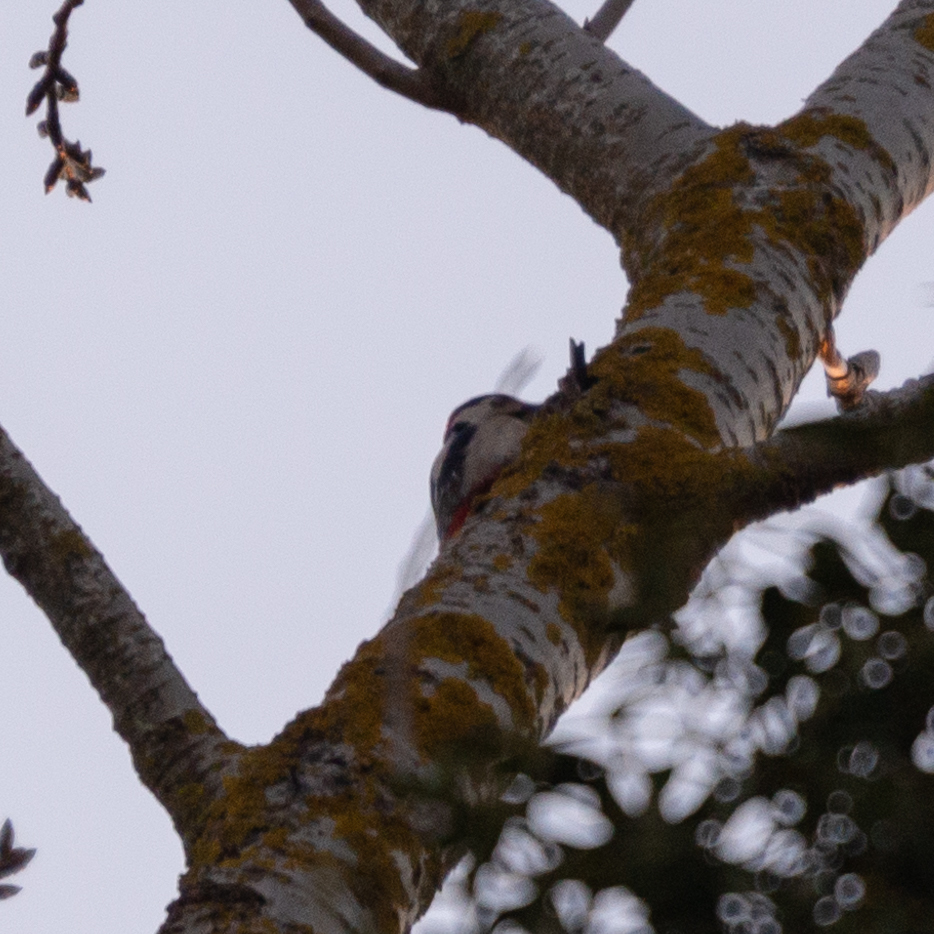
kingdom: Animalia
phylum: Chordata
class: Aves
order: Piciformes
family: Picidae
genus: Dendrocopos
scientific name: Dendrocopos major
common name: Great spotted woodpecker
